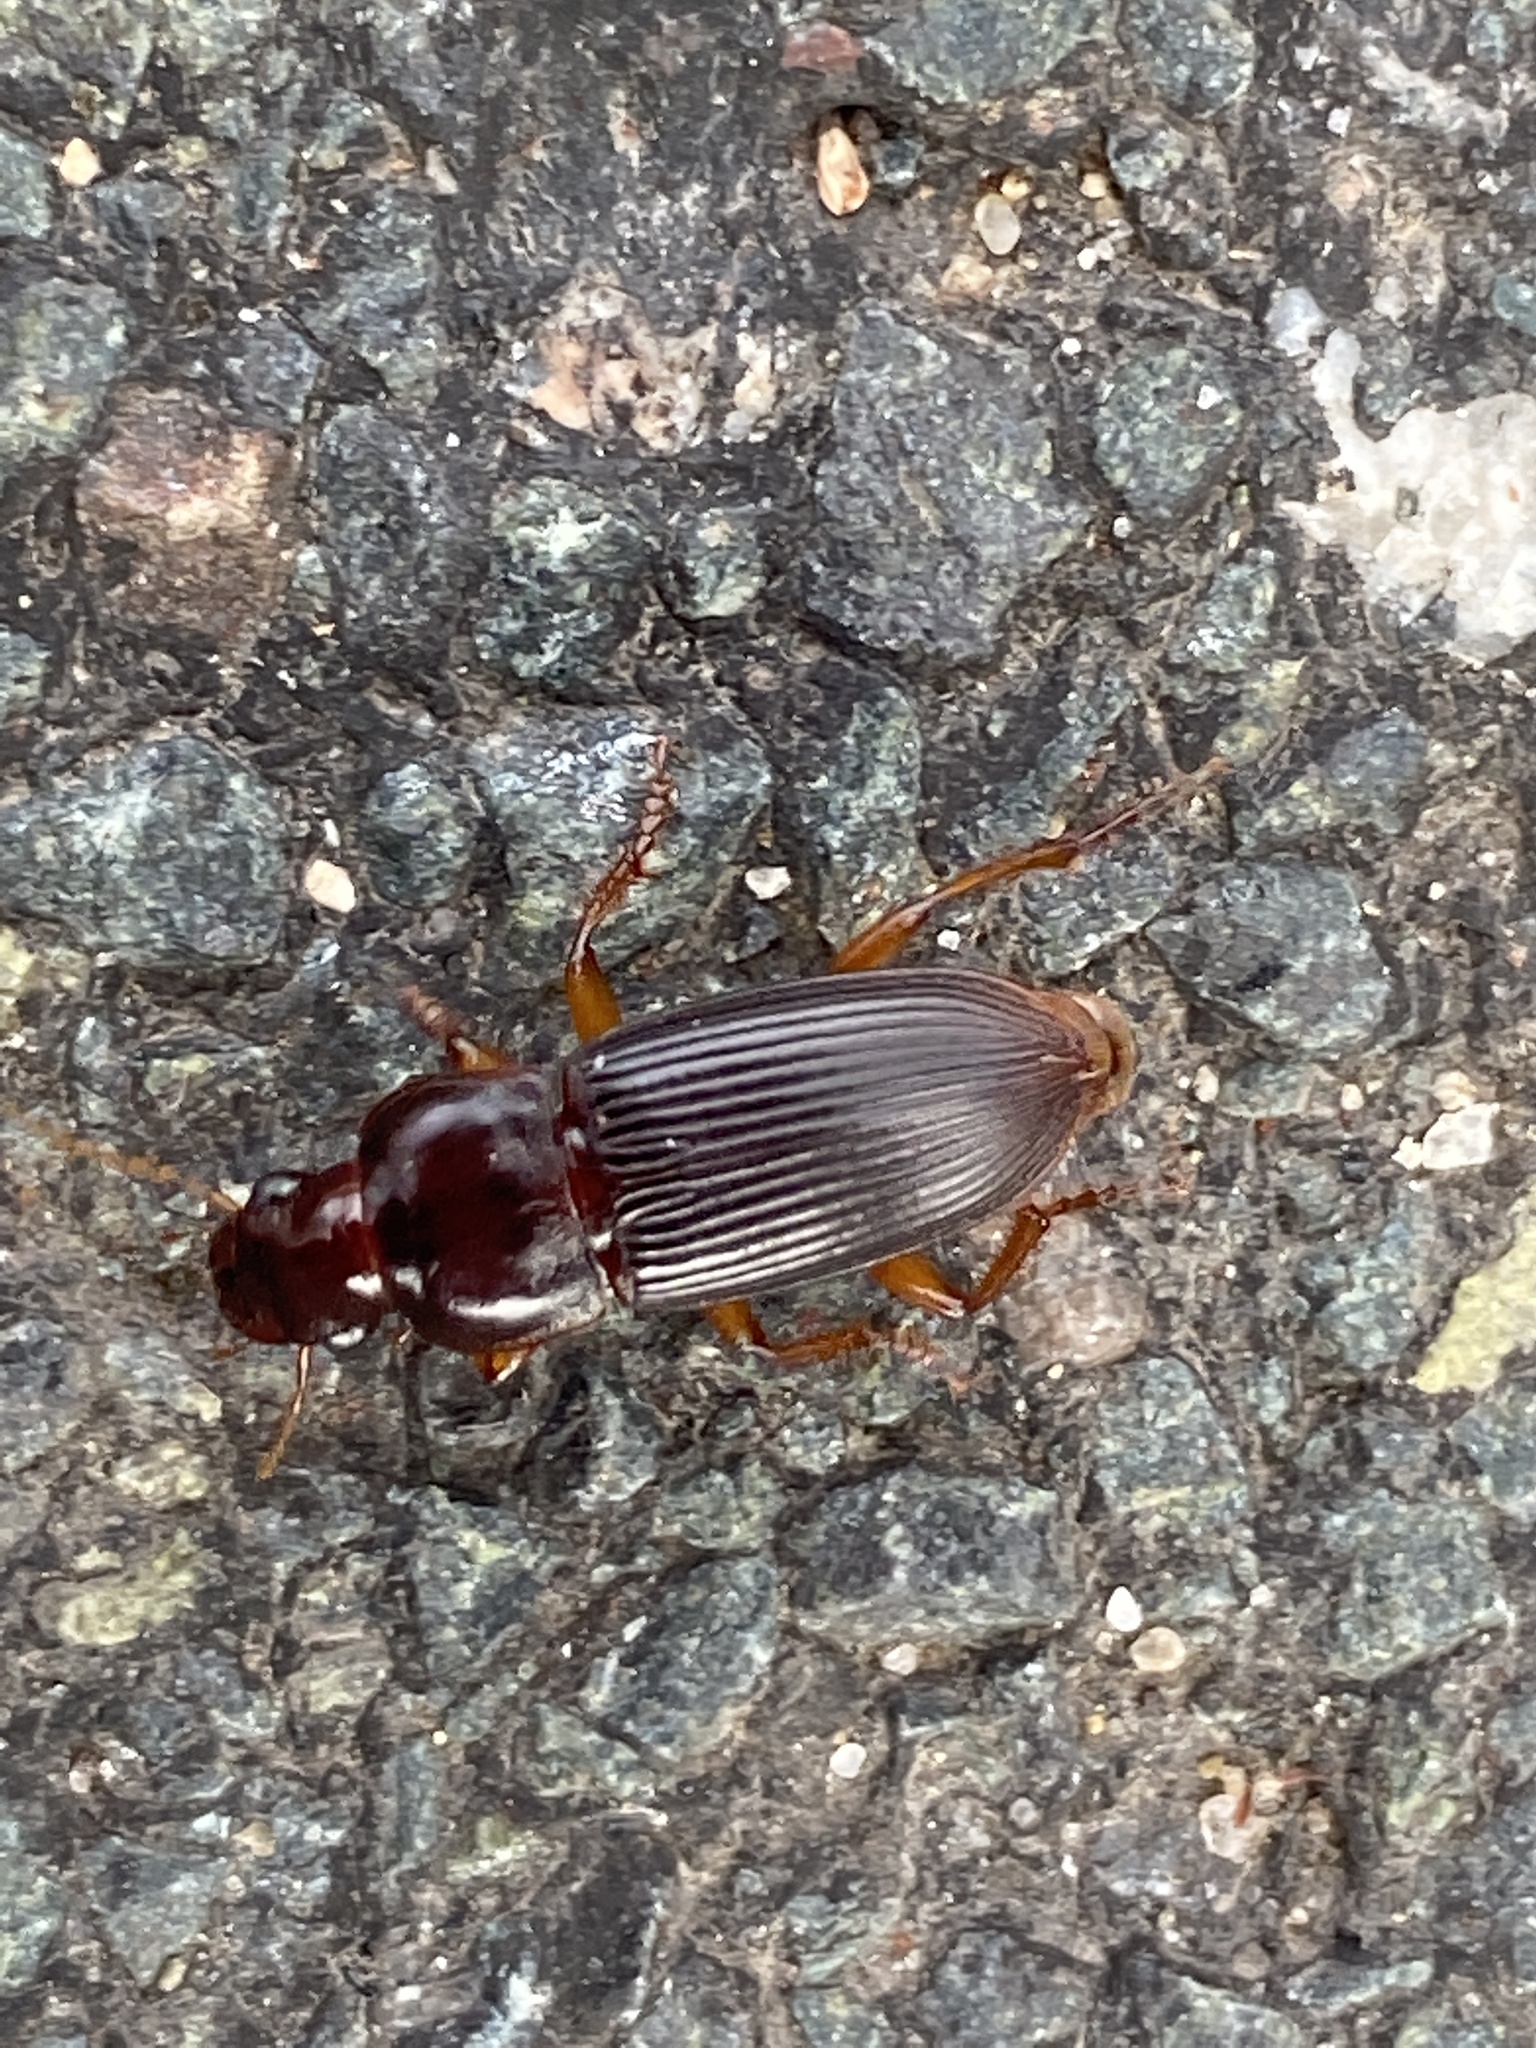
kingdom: Animalia
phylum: Arthropoda
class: Insecta
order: Coleoptera
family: Carabidae
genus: Harpalus
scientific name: Harpalus pensylvanicus
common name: Pennsylvania dingy ground beetle
